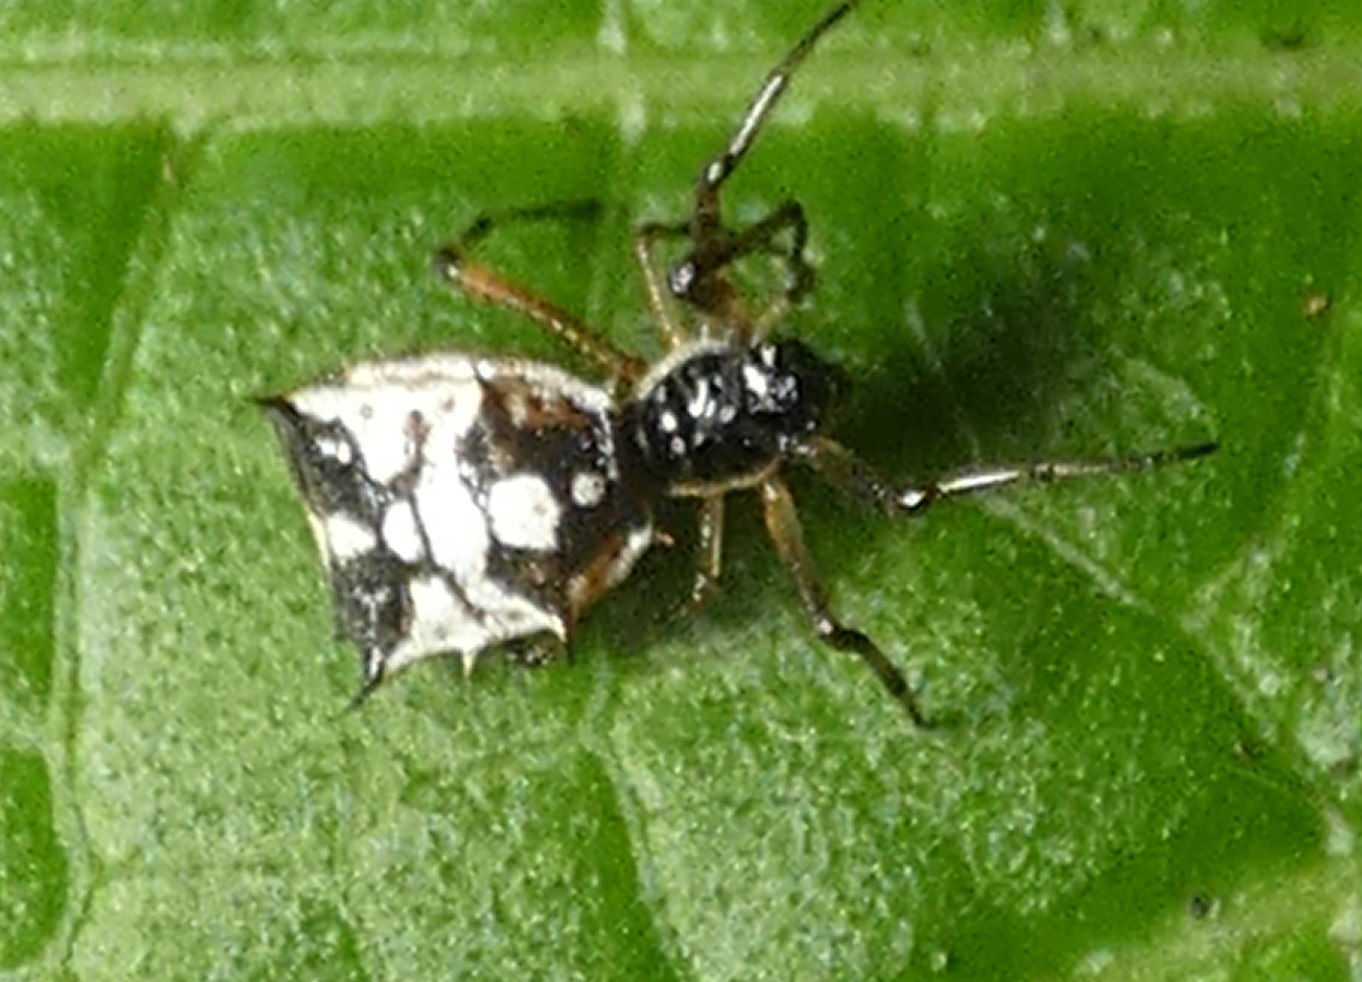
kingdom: Animalia
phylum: Arthropoda
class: Arachnida
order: Araneae
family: Araneidae
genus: Micrathena
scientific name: Micrathena picta
